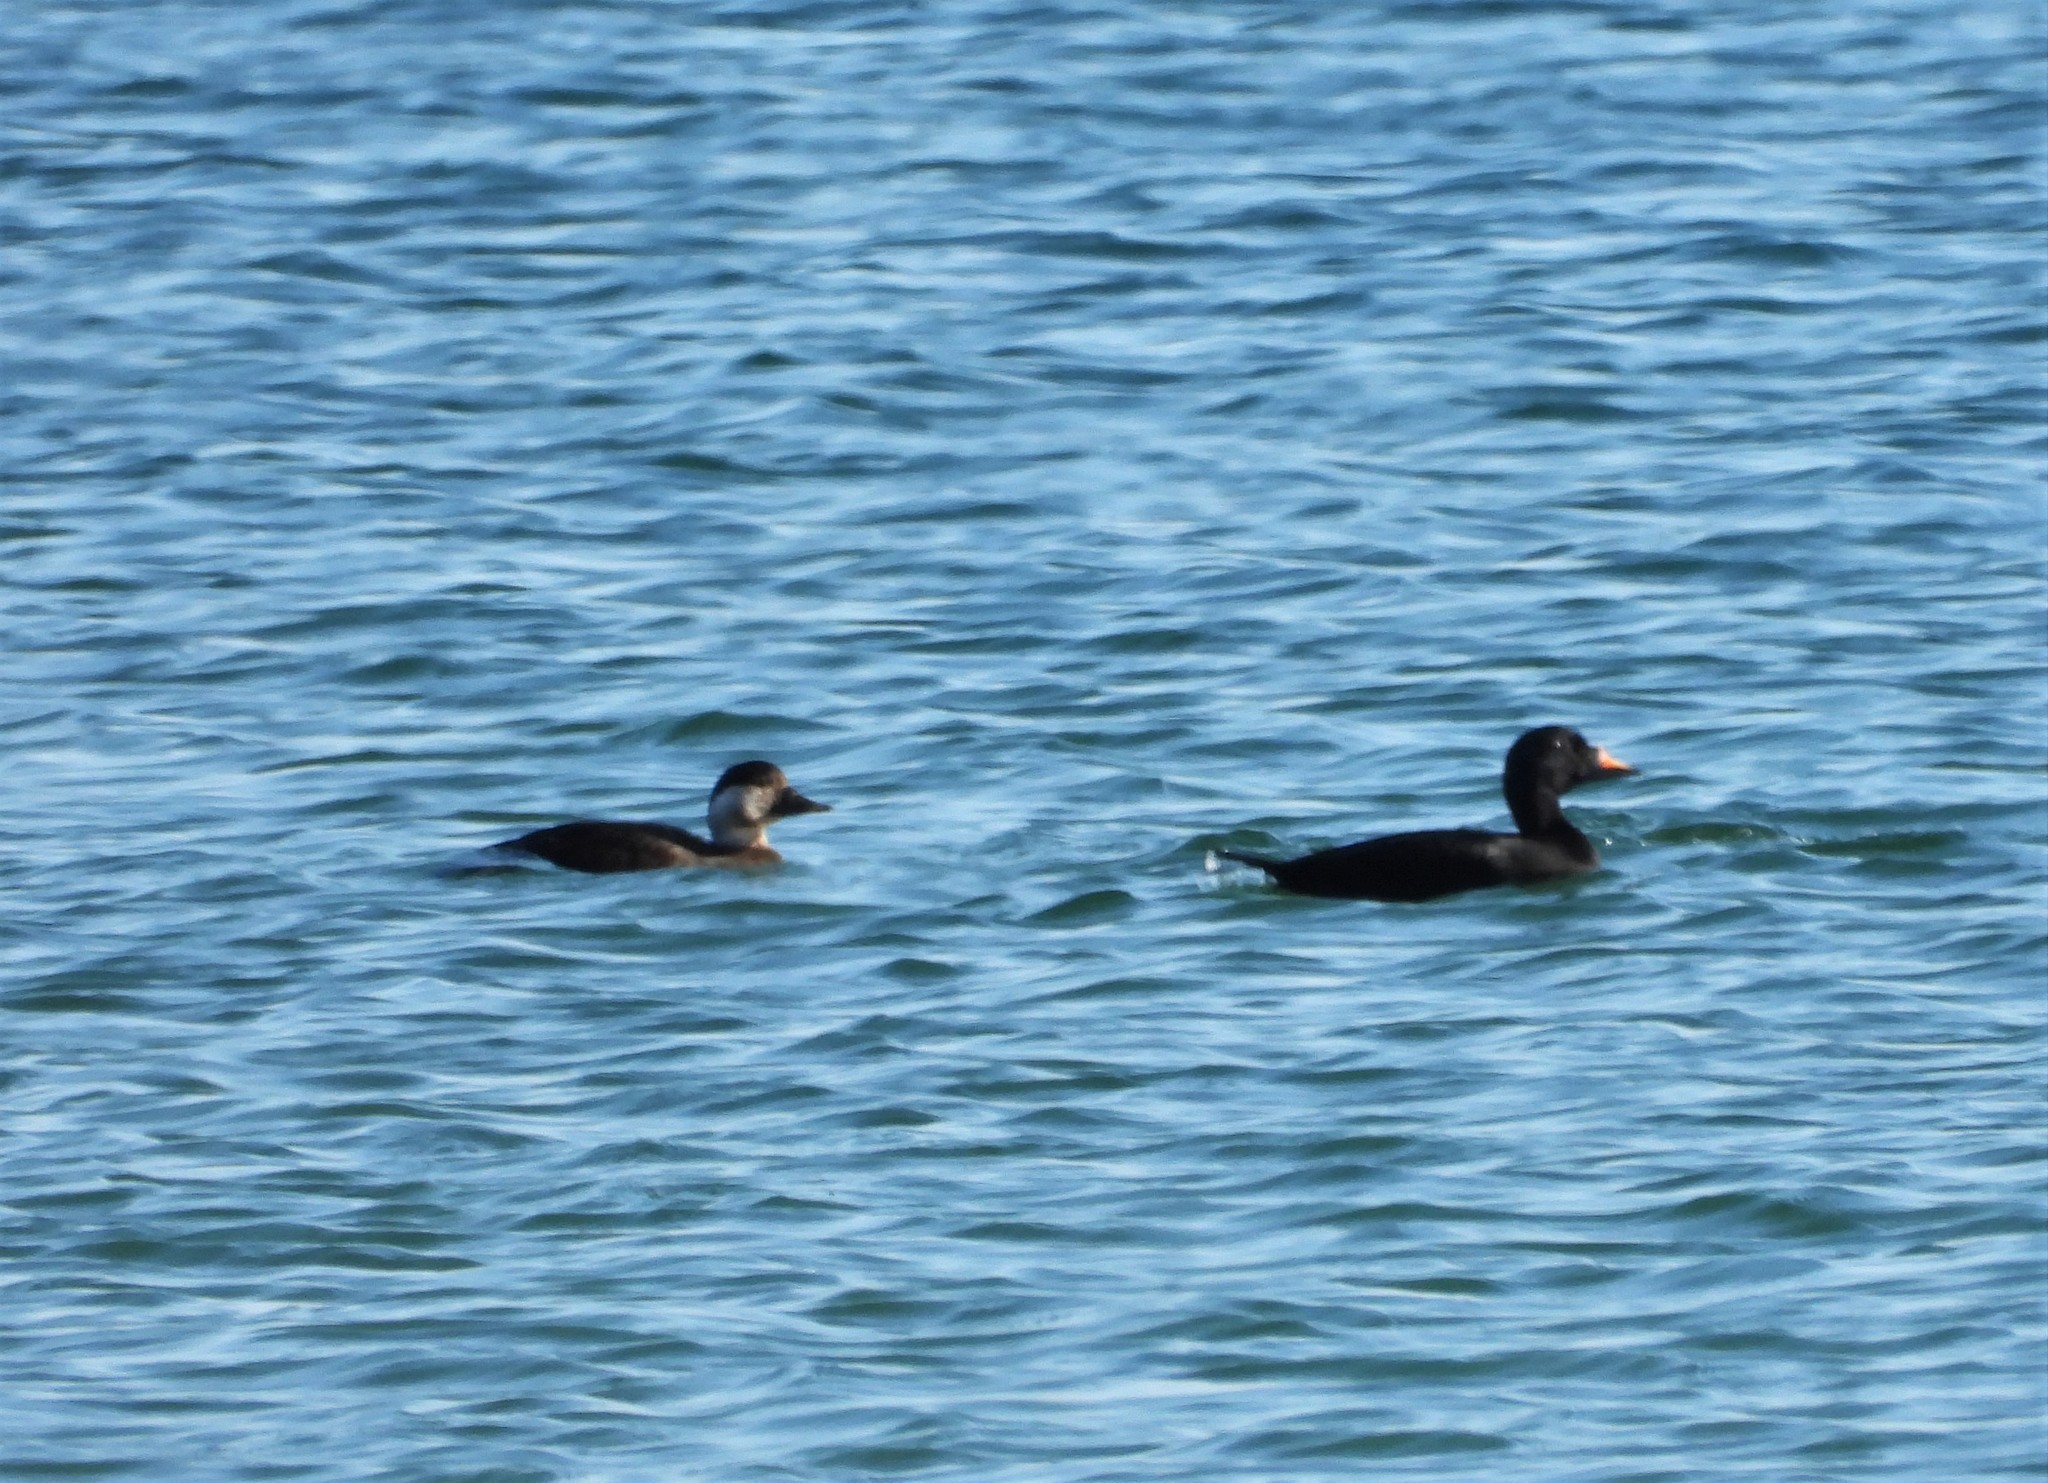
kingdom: Animalia
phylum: Chordata
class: Aves
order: Anseriformes
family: Anatidae
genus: Melanitta
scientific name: Melanitta nigra
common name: Common scoter
